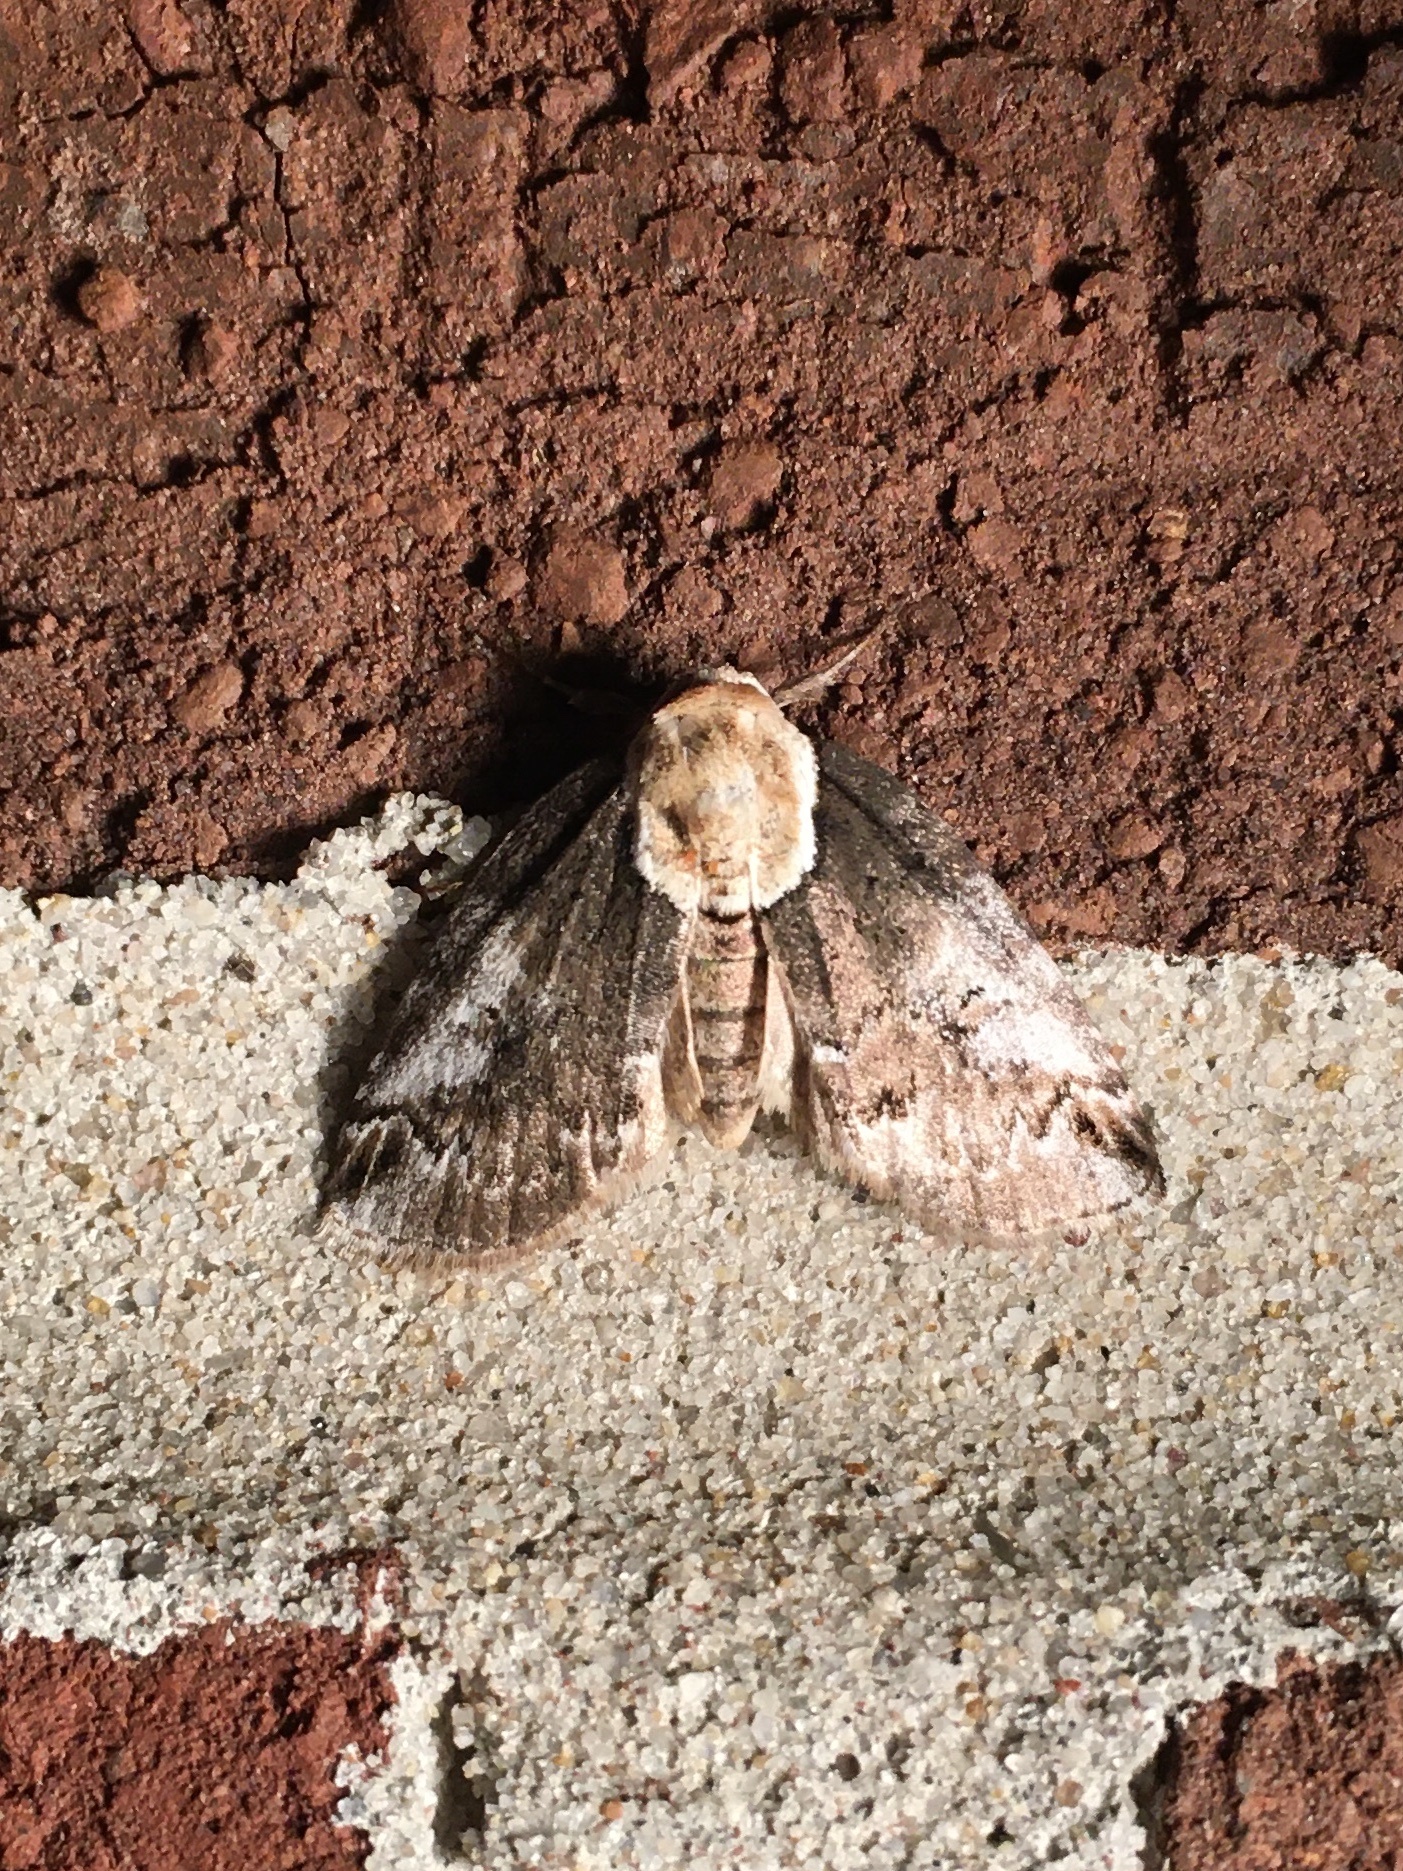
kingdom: Animalia
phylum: Arthropoda
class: Insecta
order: Lepidoptera
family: Nolidae
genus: Baileya
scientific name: Baileya ophthalmica
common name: Eyed baileya moth
